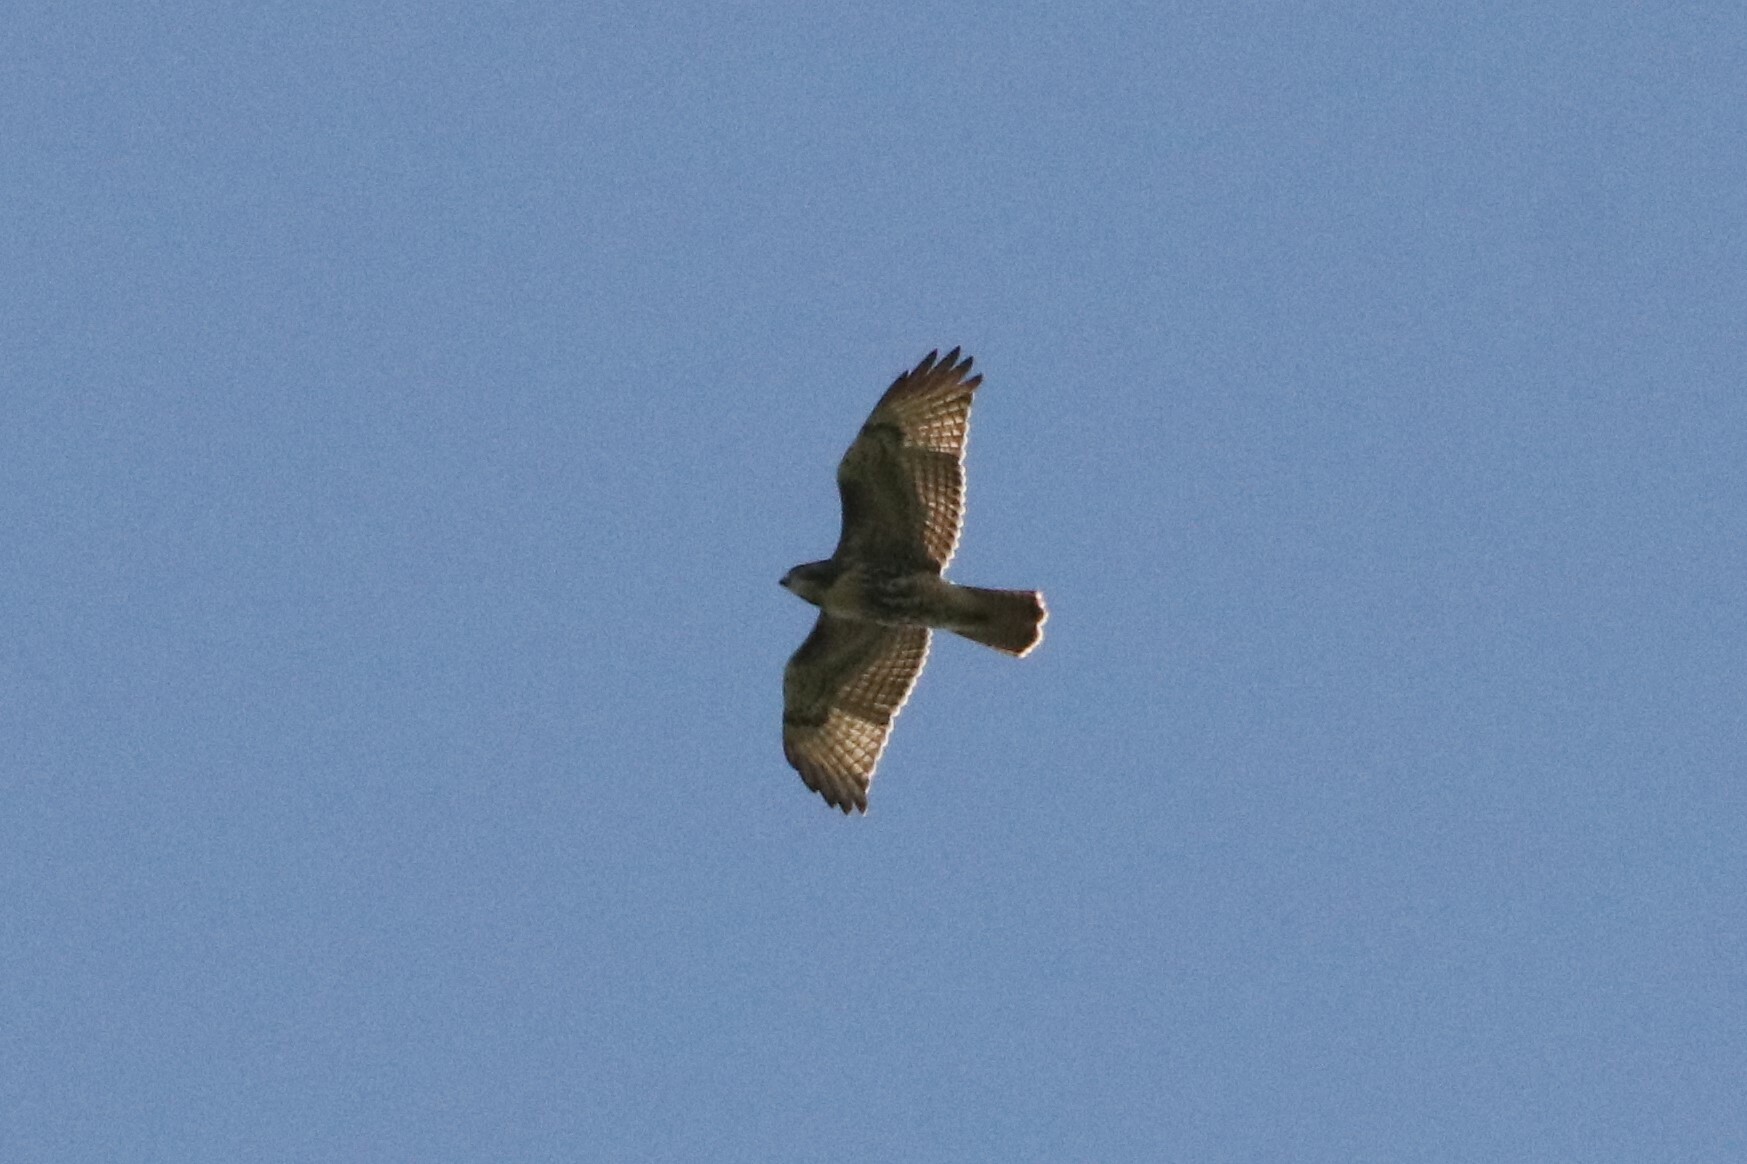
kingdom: Animalia
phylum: Chordata
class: Aves
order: Accipitriformes
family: Accipitridae
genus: Buteo
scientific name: Buteo jamaicensis
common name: Red-tailed hawk
